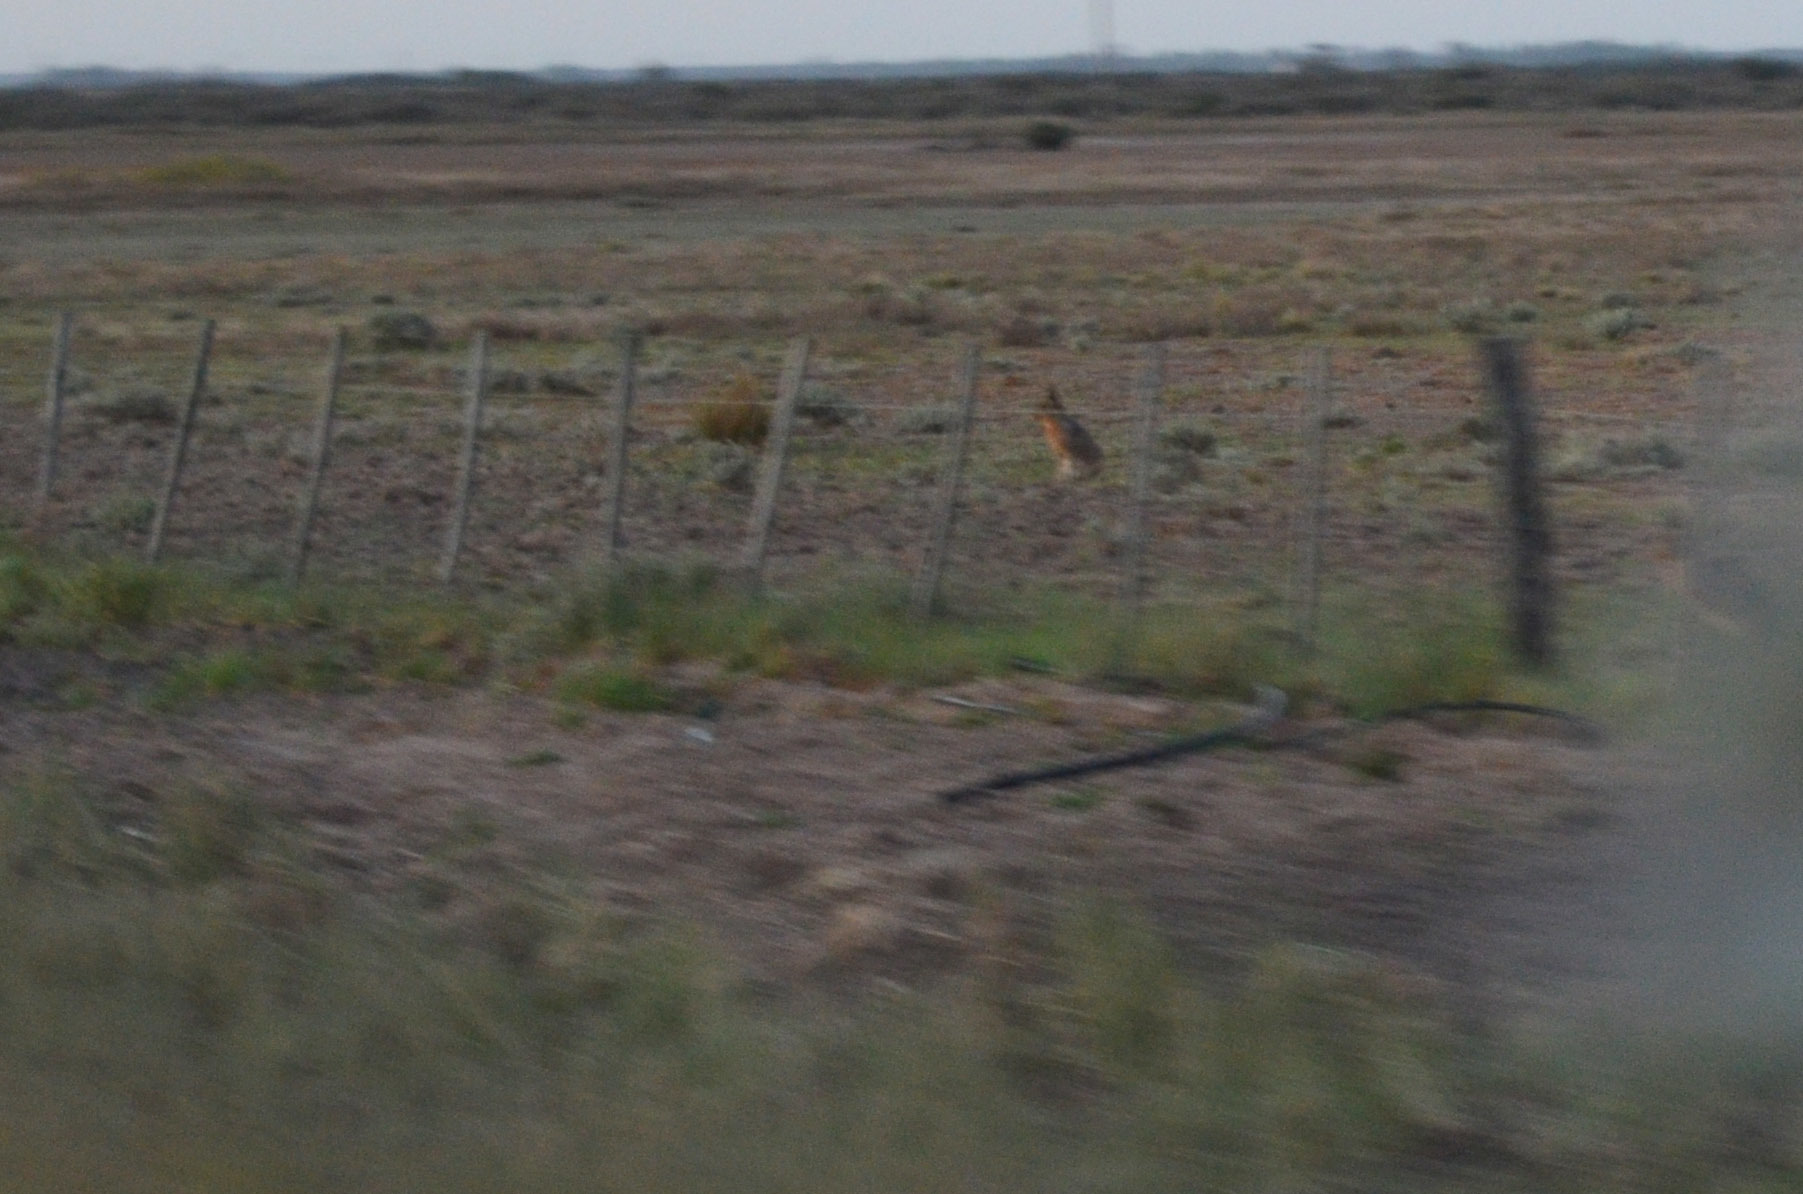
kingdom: Animalia
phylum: Chordata
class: Mammalia
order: Rodentia
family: Caviidae
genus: Dolichotis
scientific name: Dolichotis patagonum
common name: Patagonian mara
